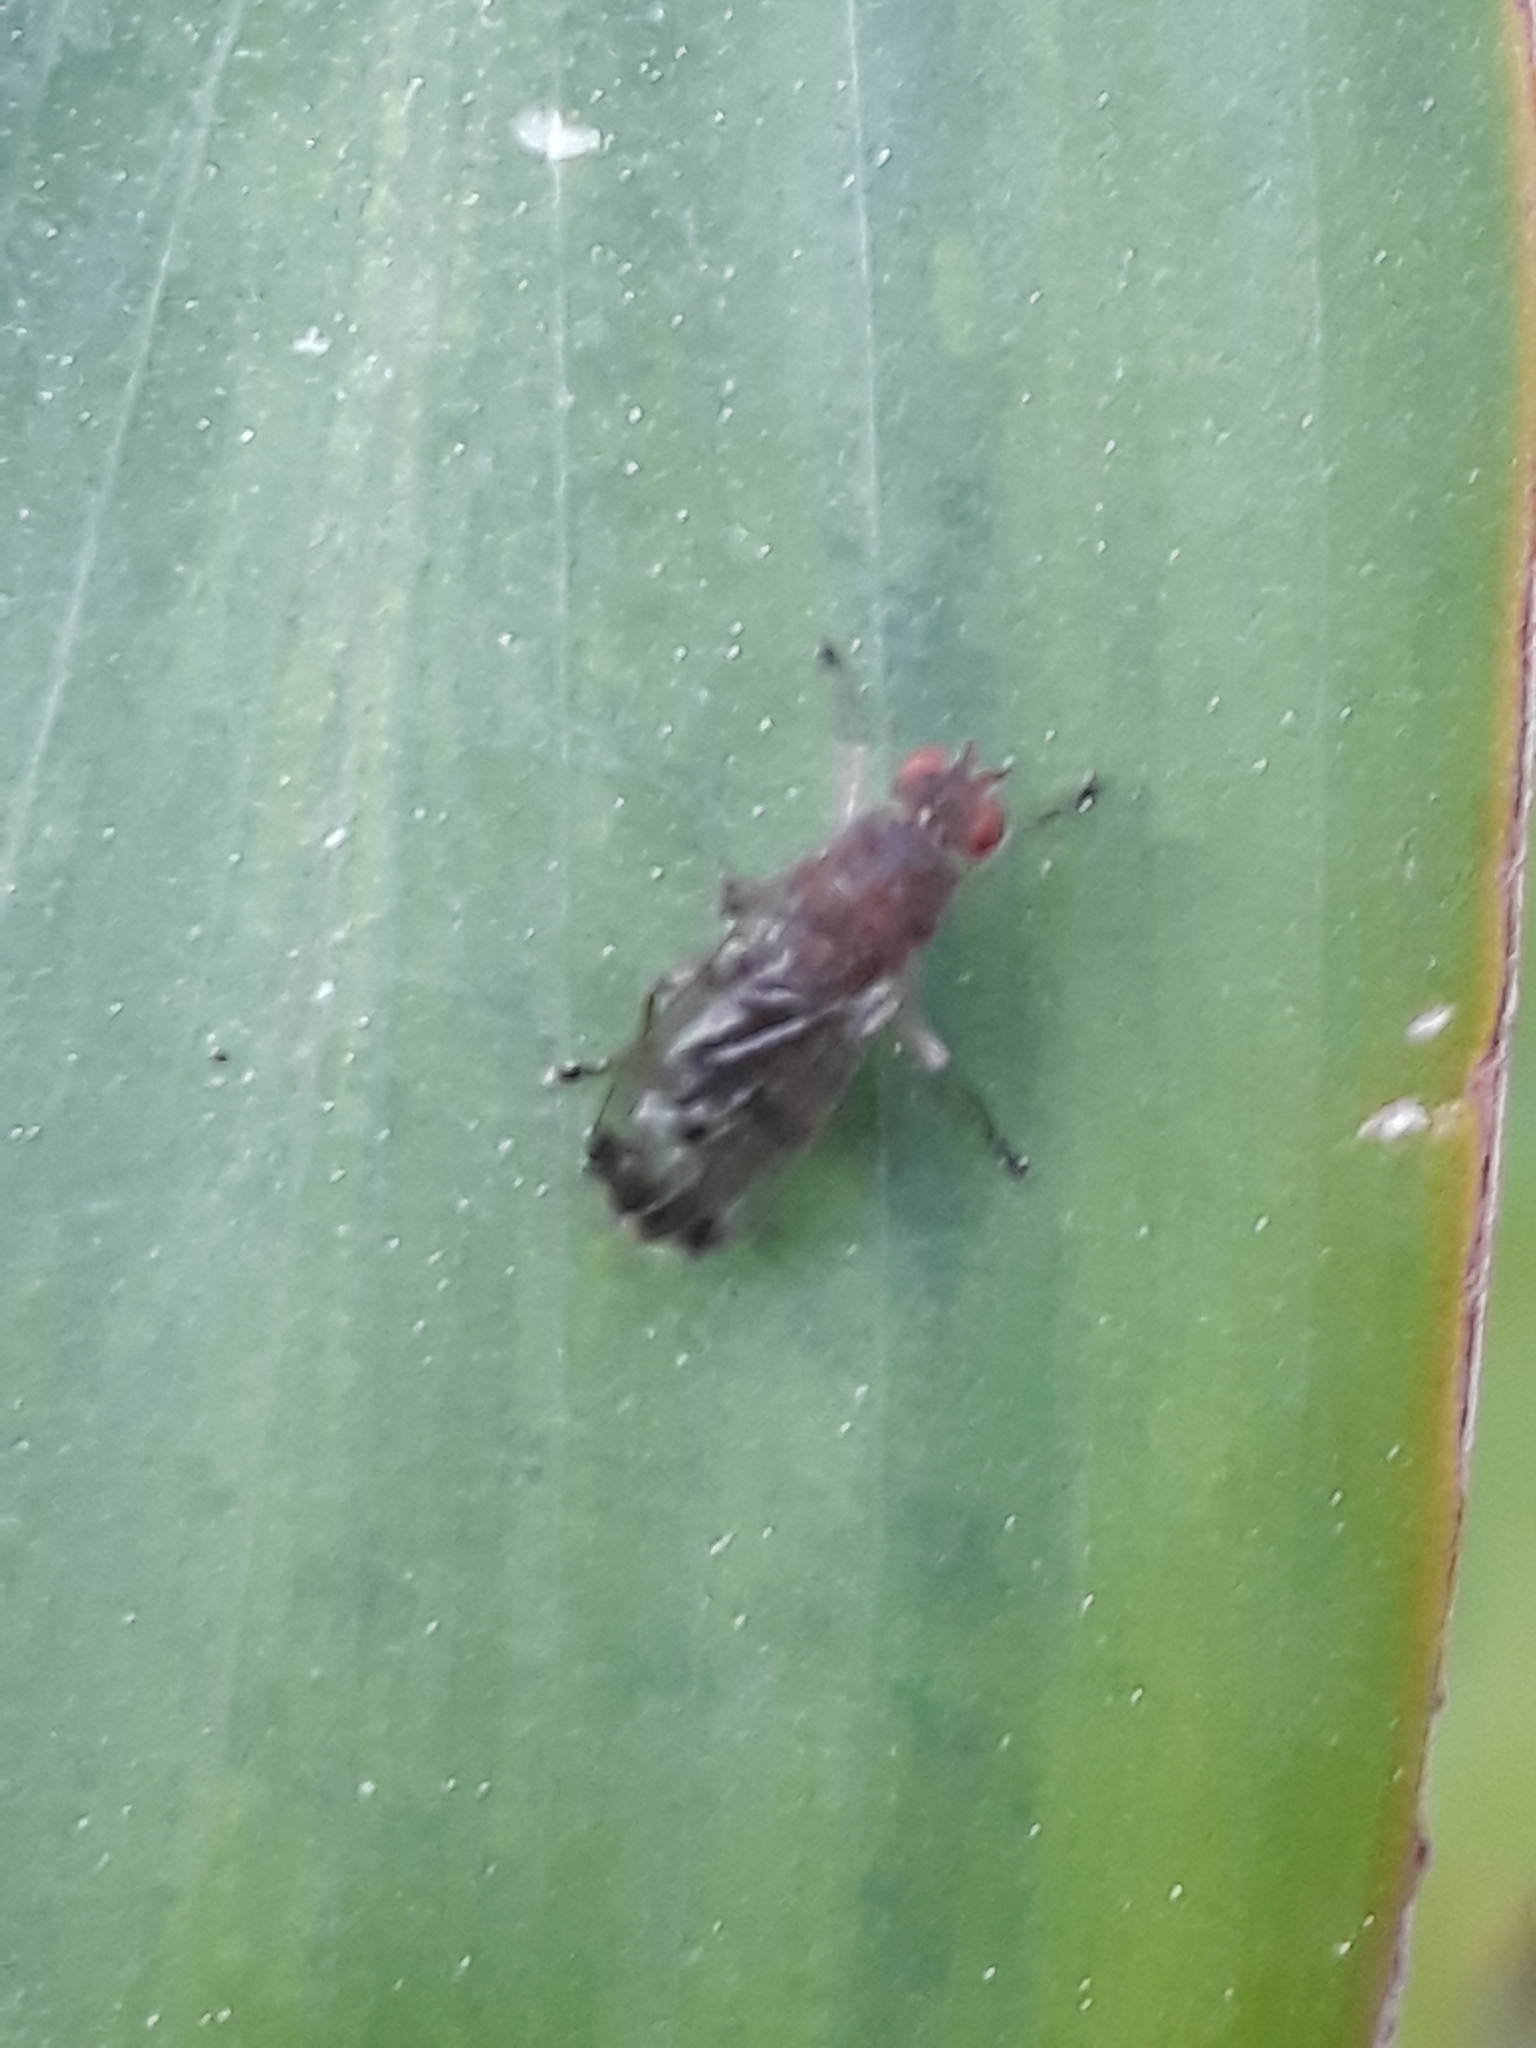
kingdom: Animalia
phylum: Arthropoda
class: Insecta
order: Diptera
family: Heleomyzidae
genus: Suillia
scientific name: Suillia variegata
